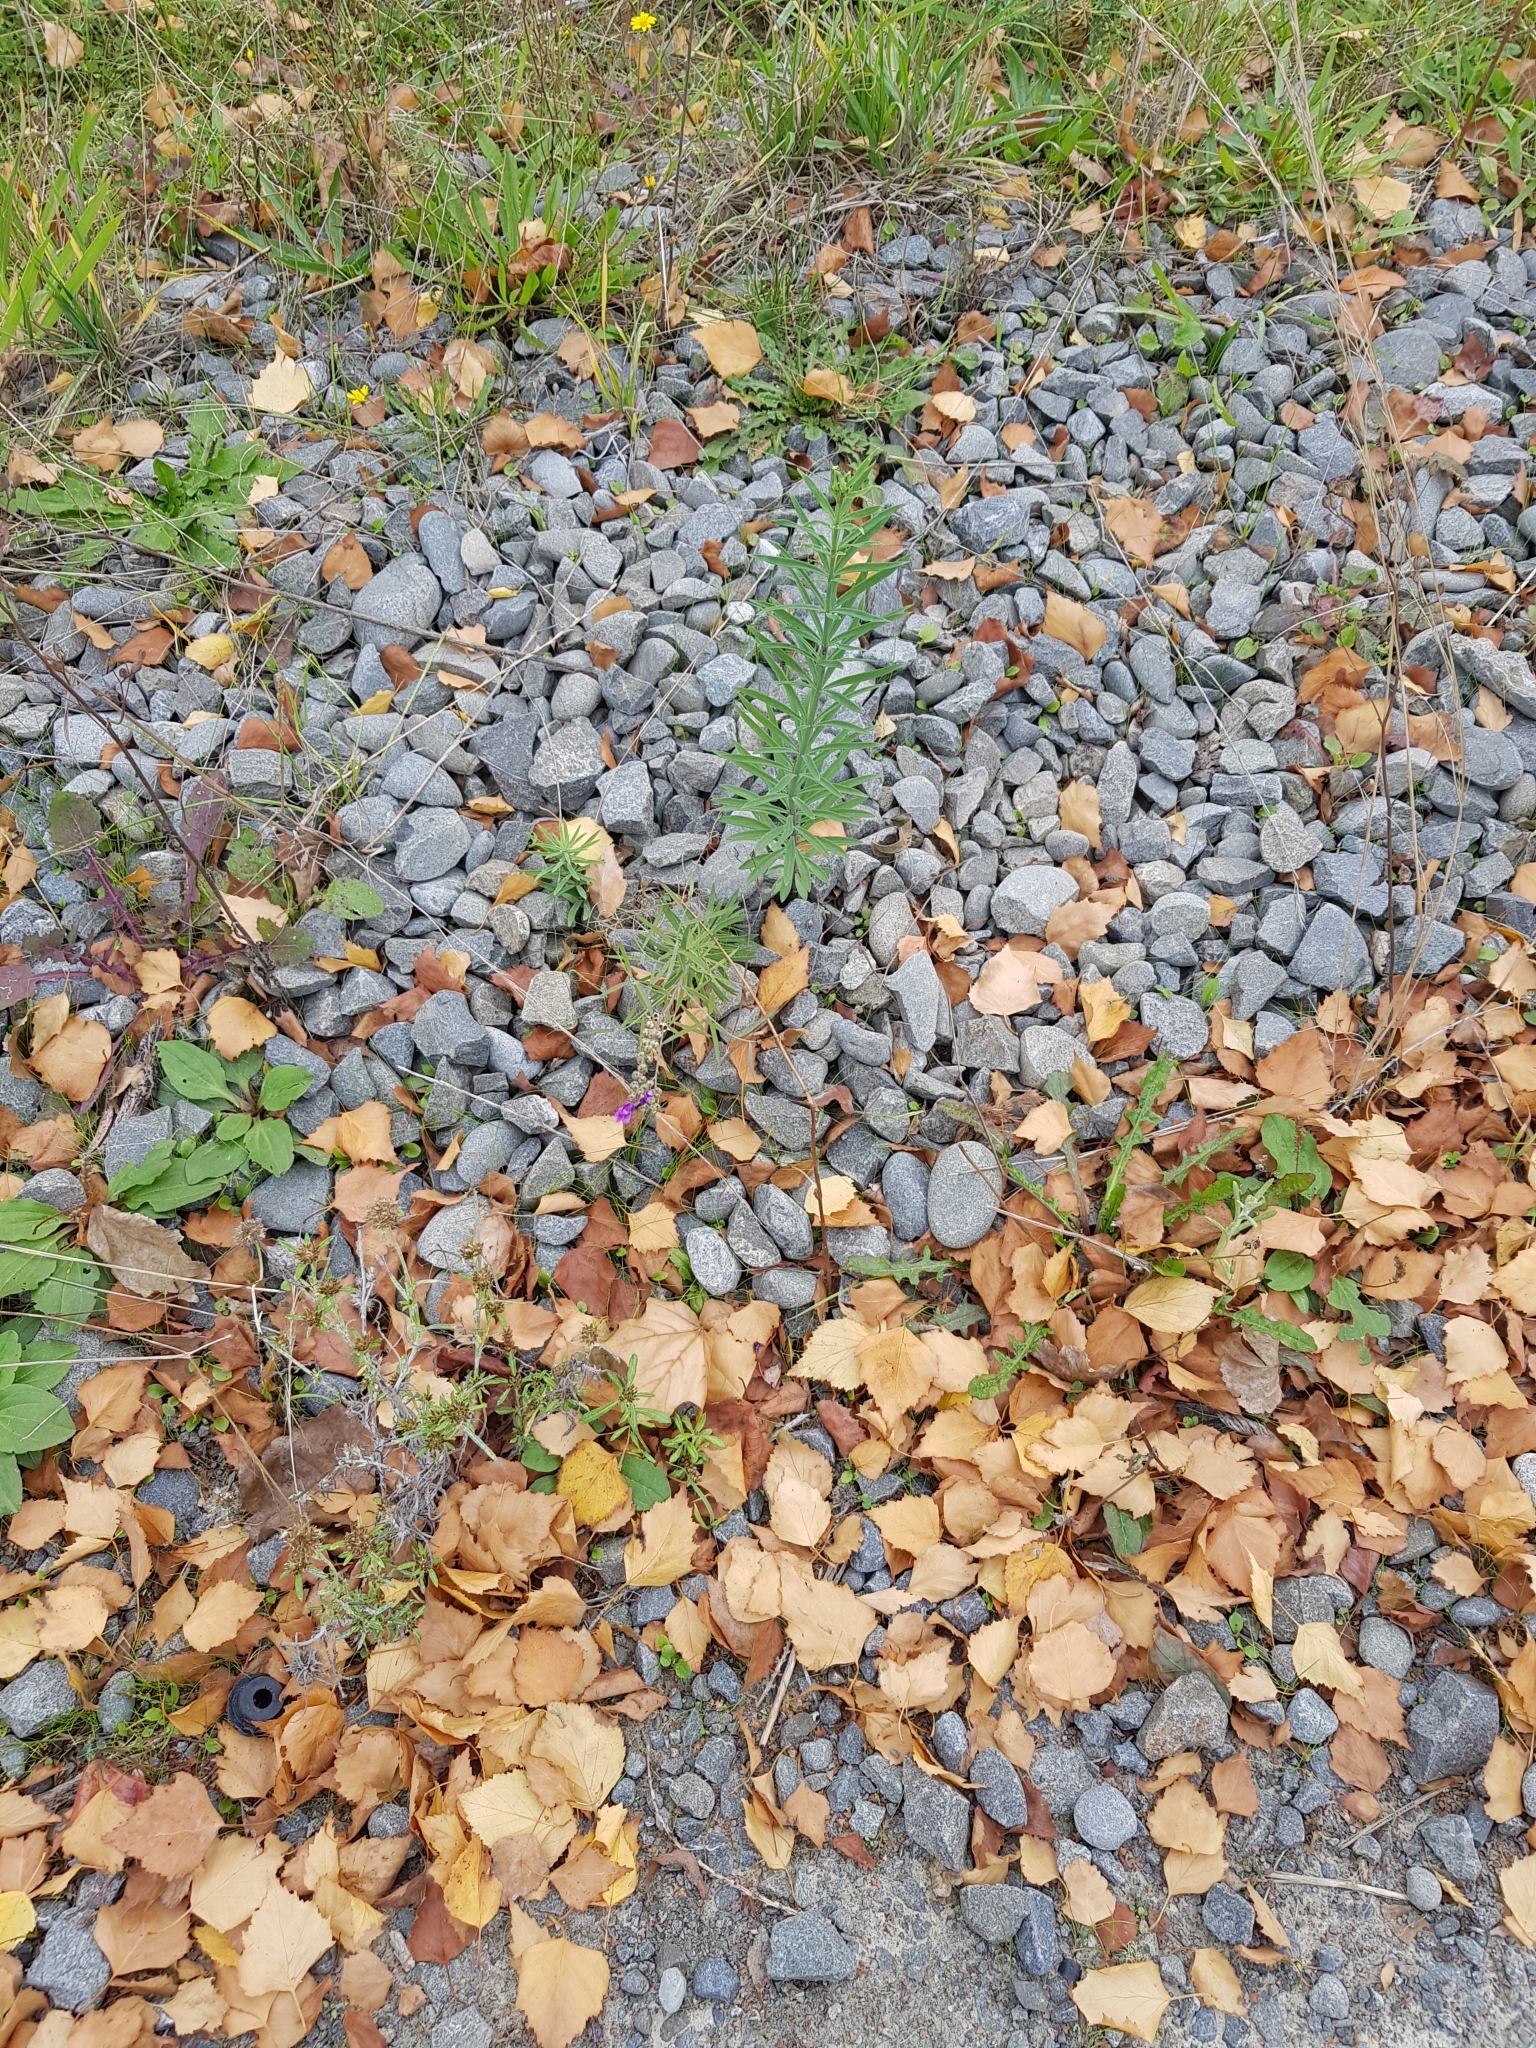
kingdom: Plantae
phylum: Tracheophyta
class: Magnoliopsida
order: Lamiales
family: Plantaginaceae
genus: Linaria
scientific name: Linaria purpurea
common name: Purple toadflax
